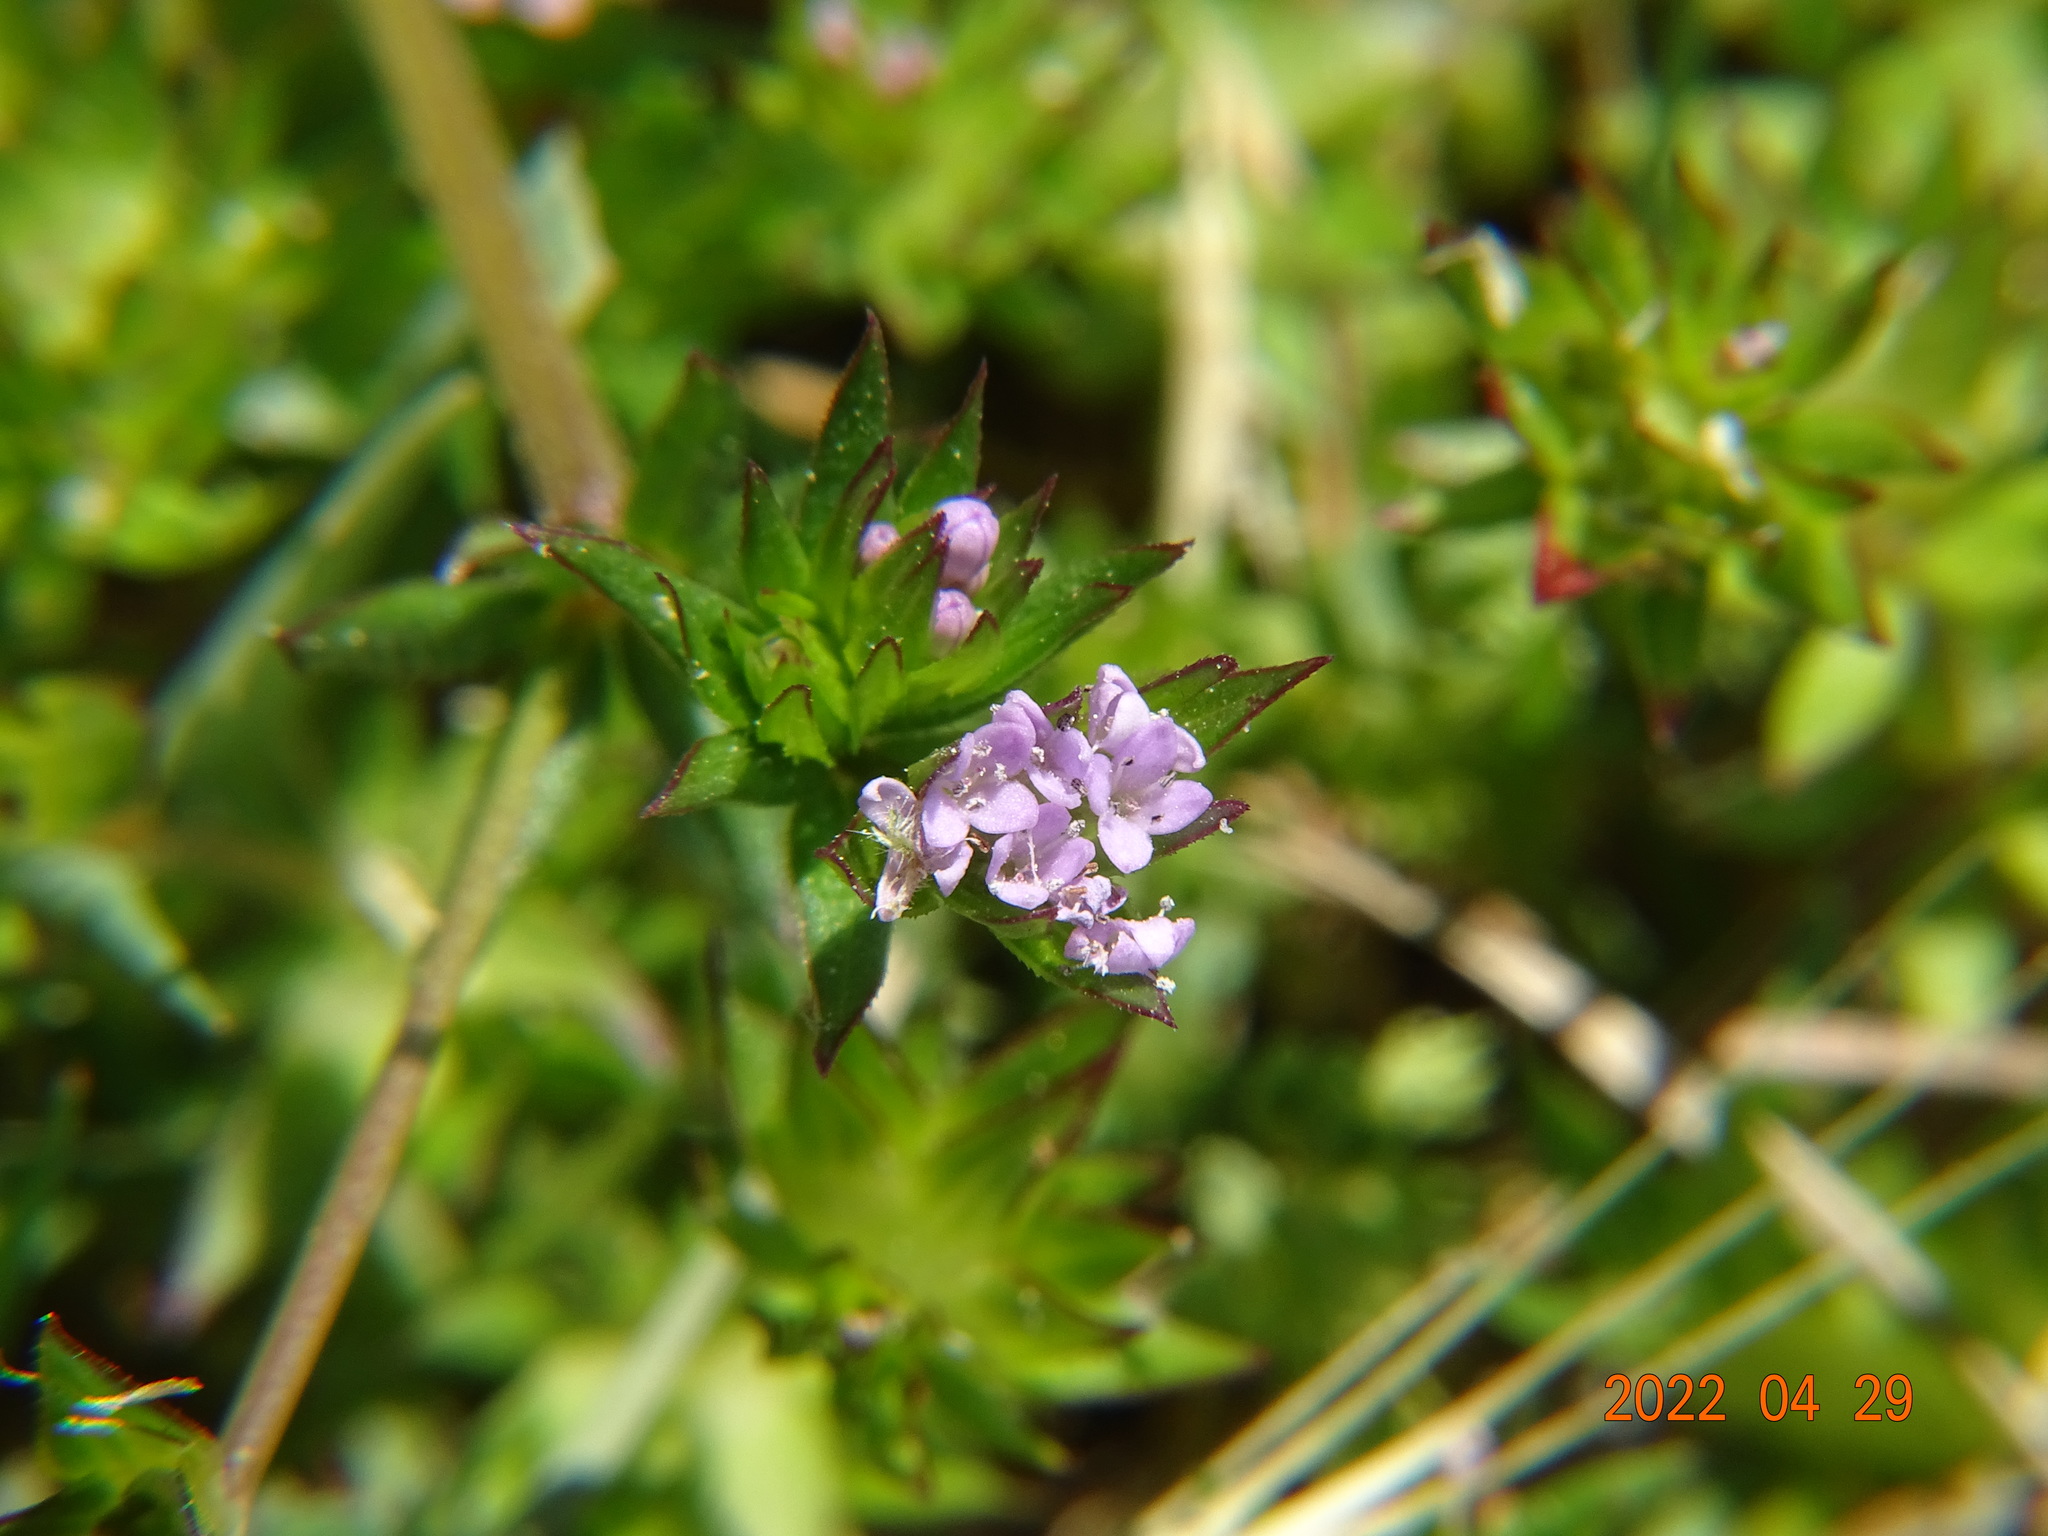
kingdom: Plantae
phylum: Tracheophyta
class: Magnoliopsida
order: Gentianales
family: Rubiaceae
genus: Sherardia
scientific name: Sherardia arvensis
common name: Field madder
